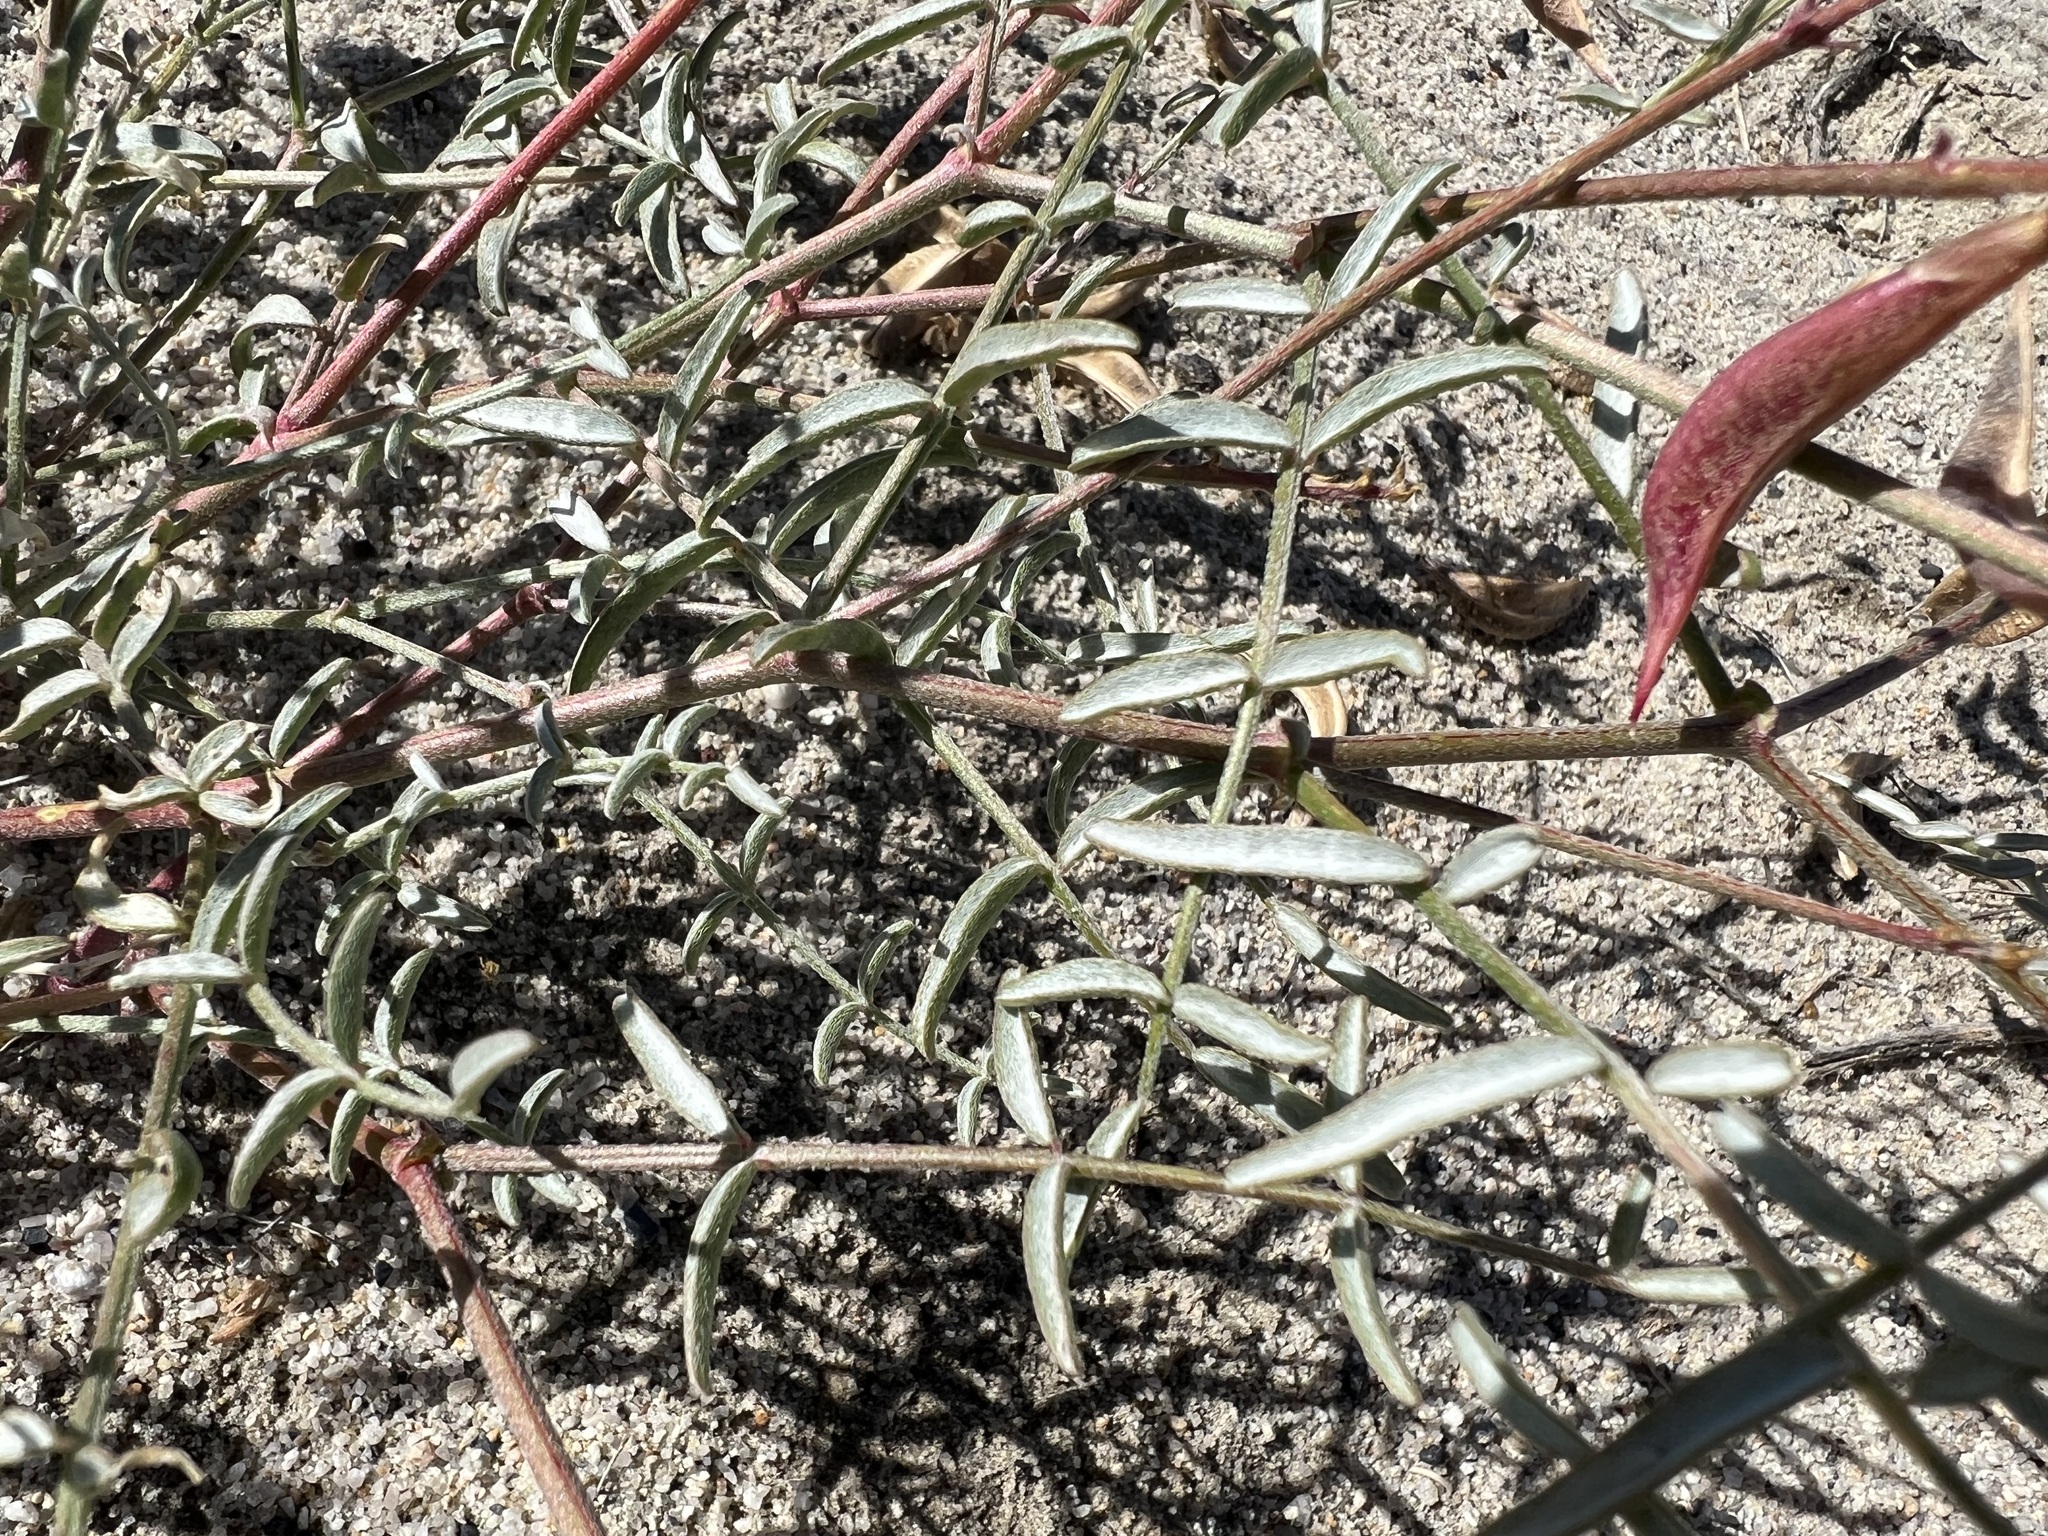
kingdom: Plantae
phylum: Tracheophyta
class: Magnoliopsida
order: Fabales
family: Fabaceae
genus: Astragalus
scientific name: Astragalus casei
